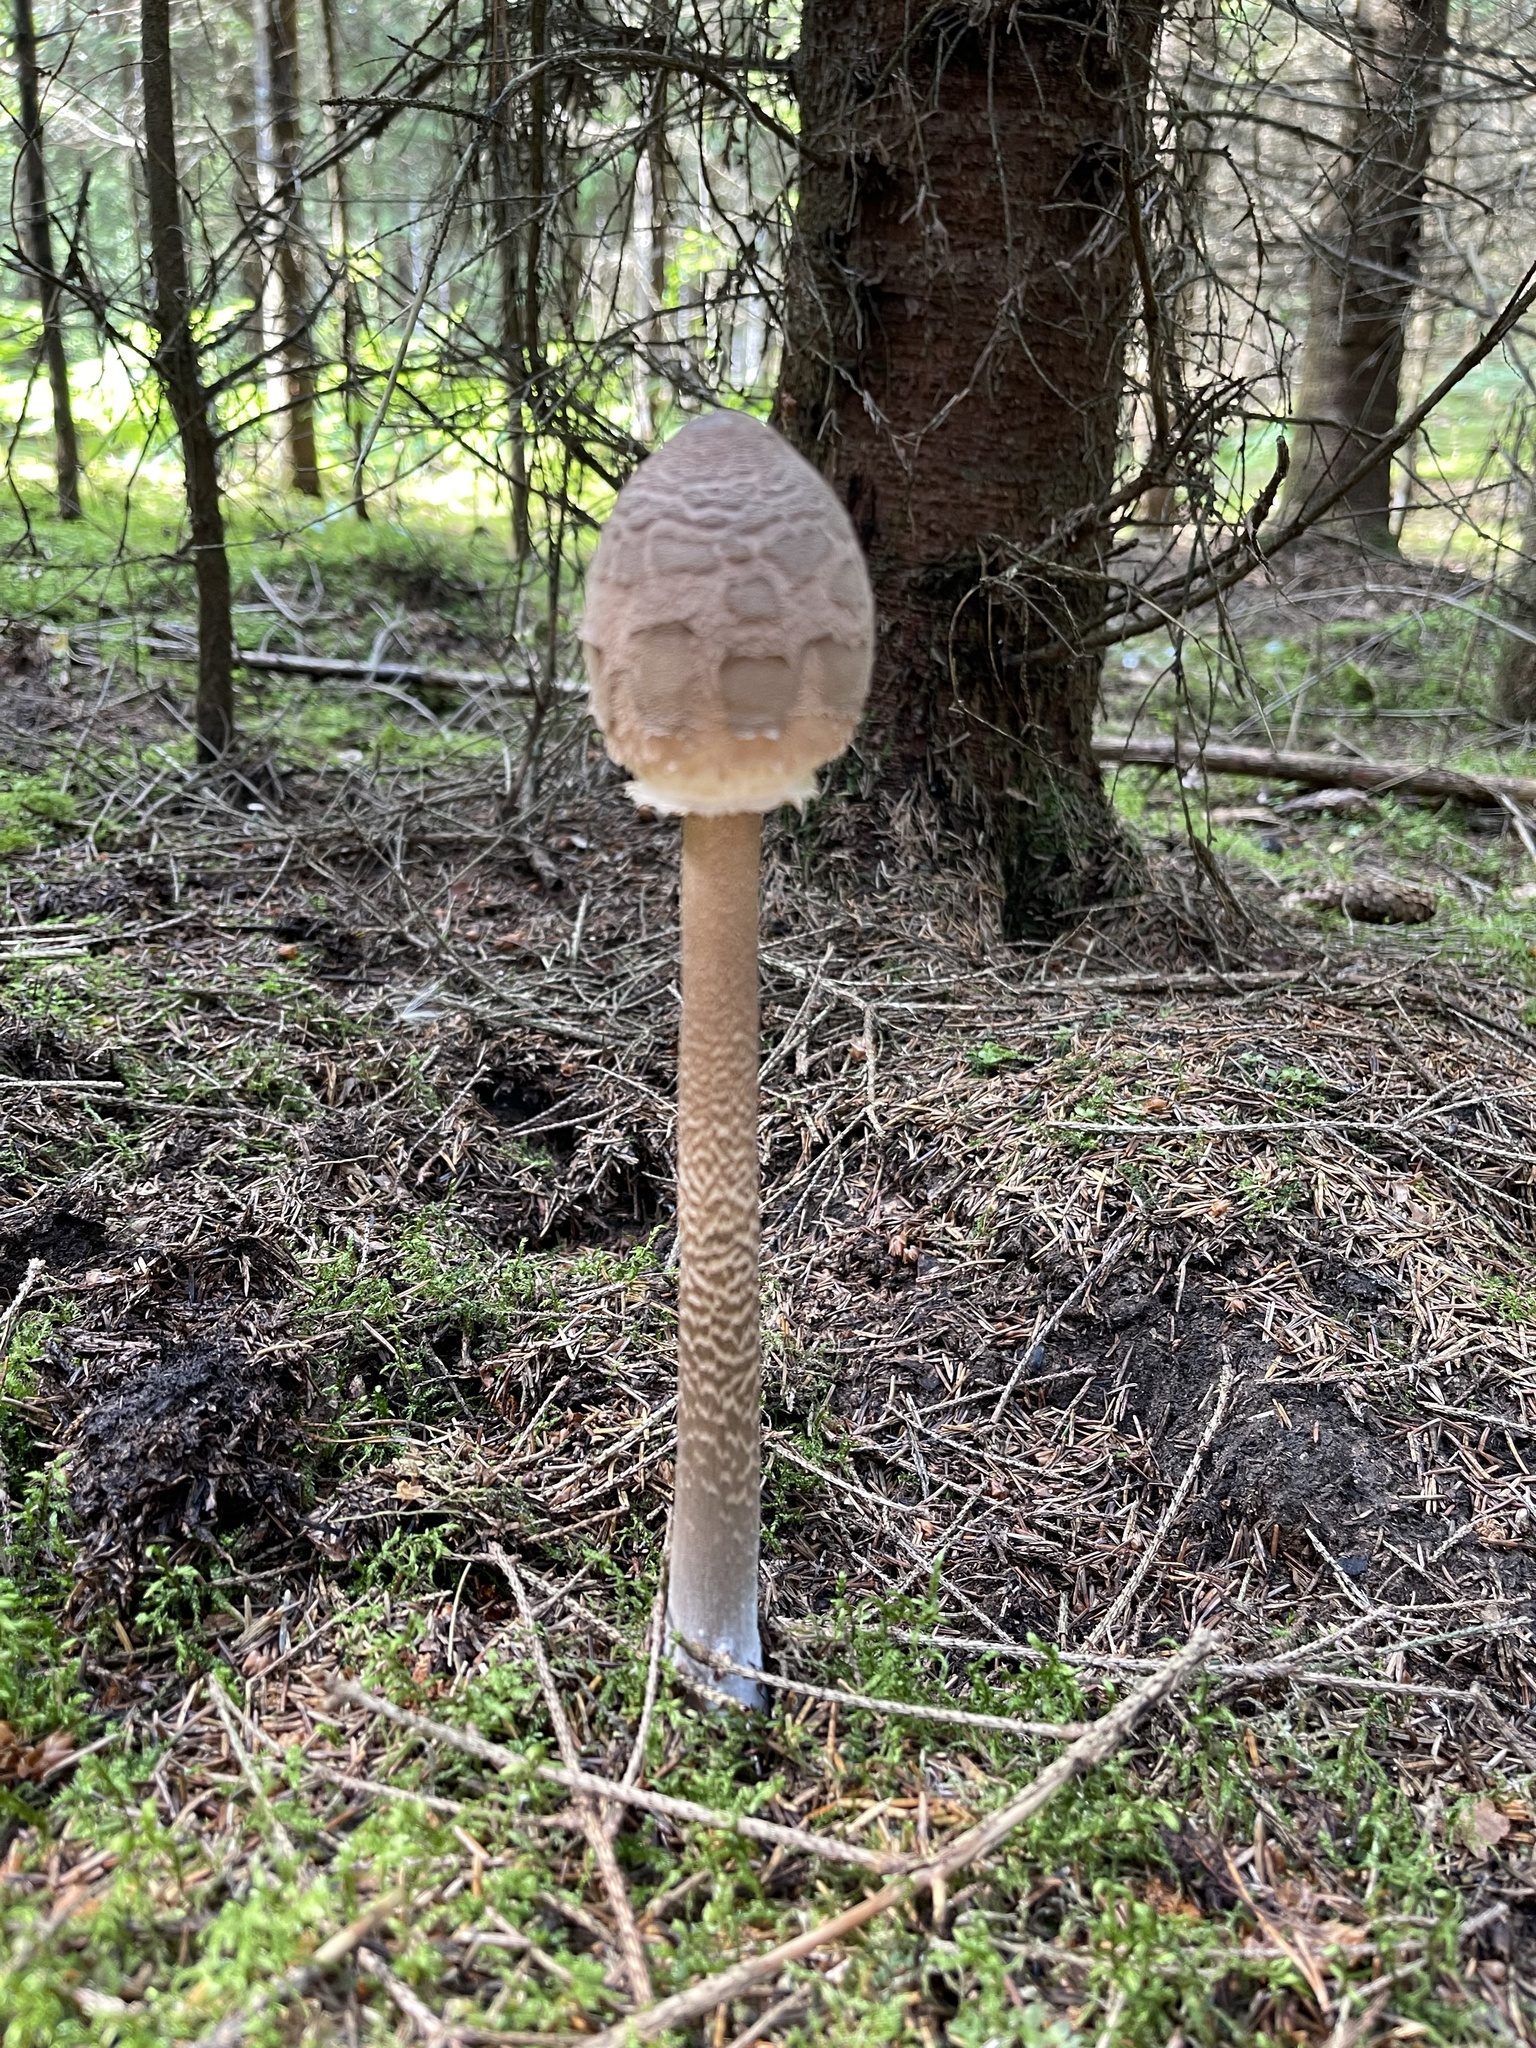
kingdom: Fungi
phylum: Basidiomycota
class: Agaricomycetes
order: Agaricales
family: Agaricaceae
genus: Macrolepiota
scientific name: Macrolepiota procera
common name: Parasol
